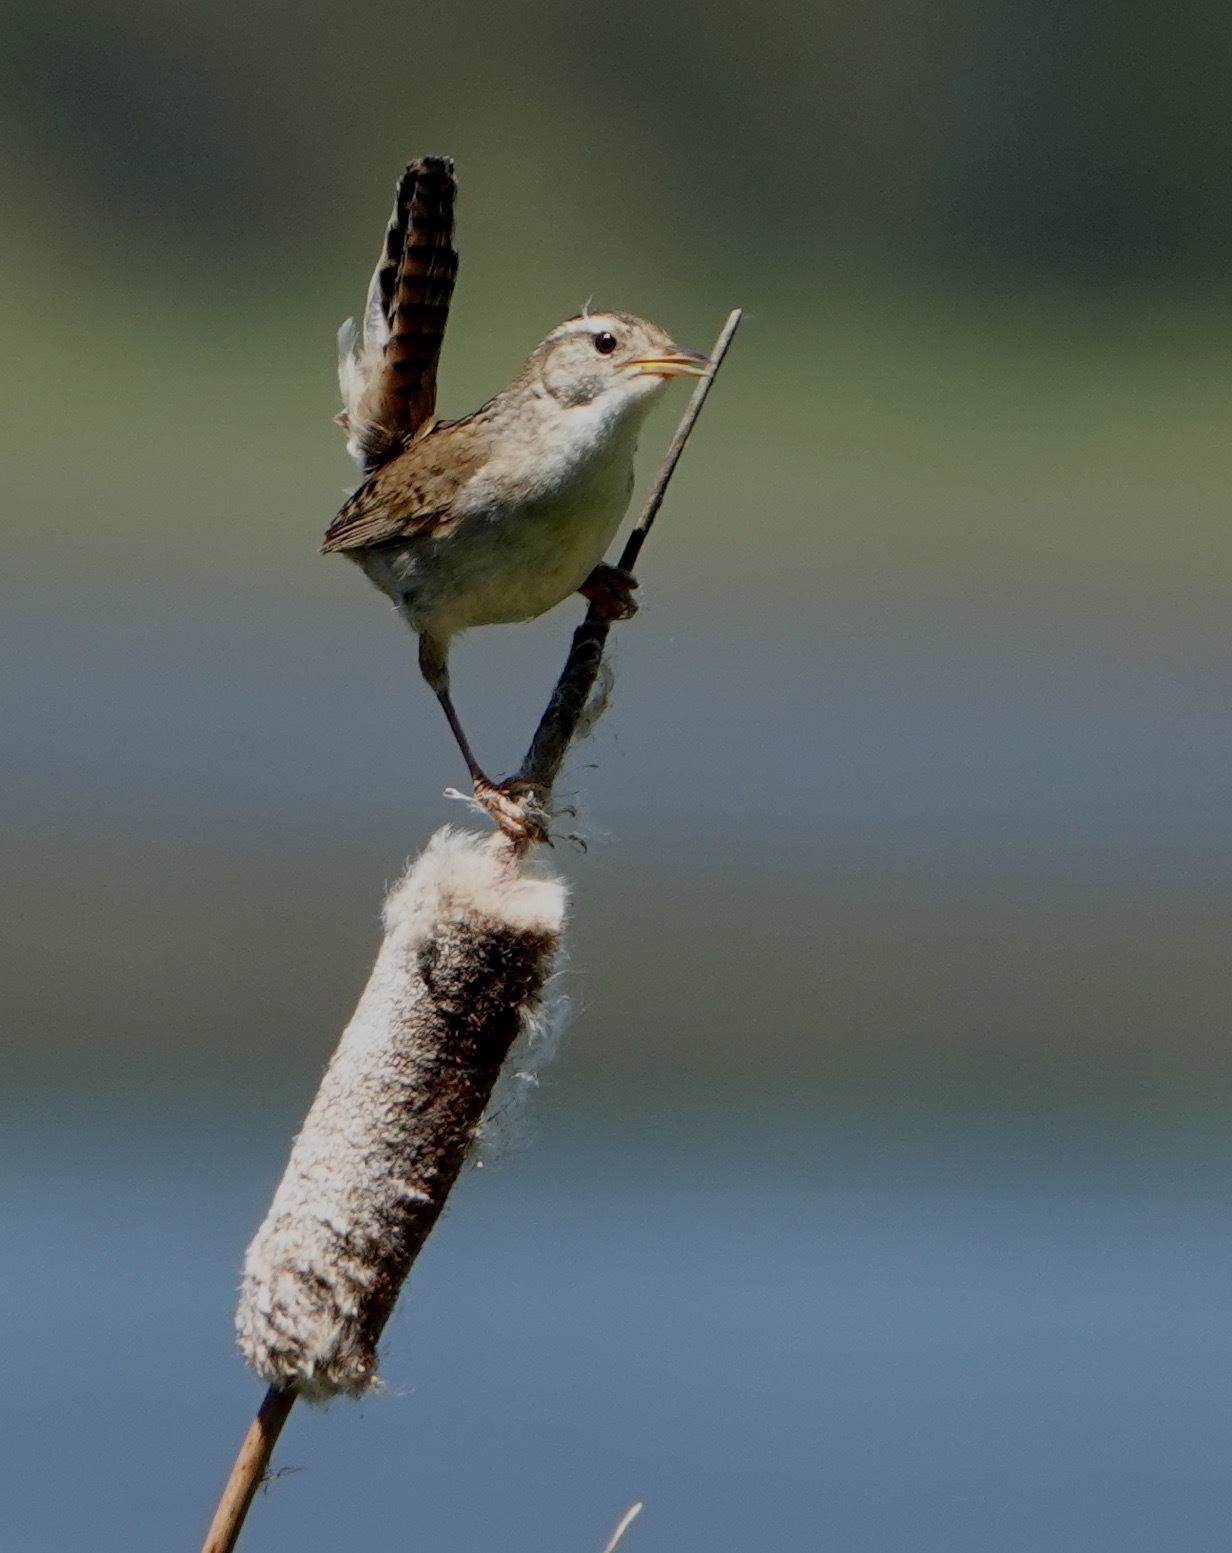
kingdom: Animalia
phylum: Chordata
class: Aves
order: Passeriformes
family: Troglodytidae
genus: Cistothorus
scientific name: Cistothorus palustris
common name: Marsh wren
